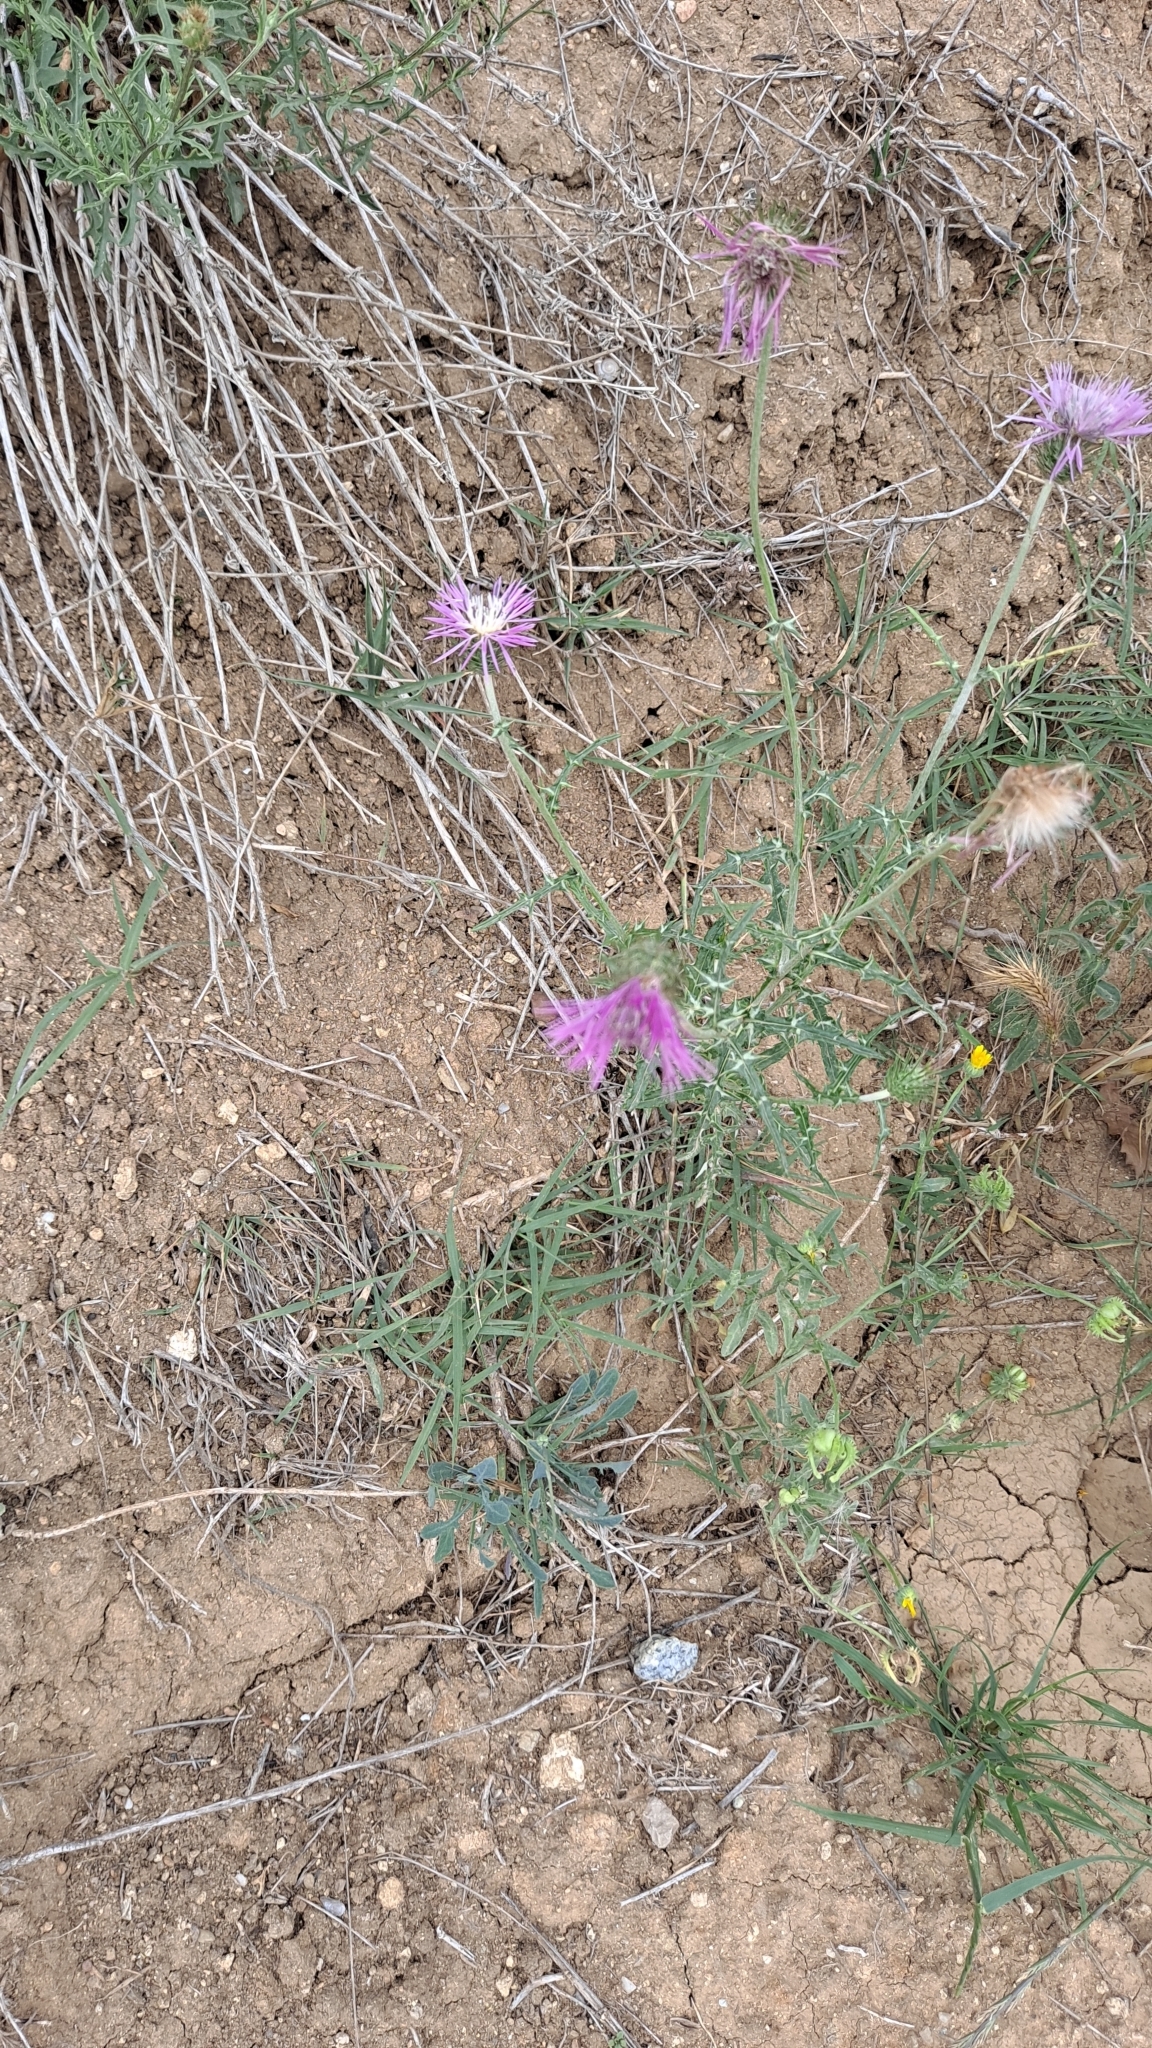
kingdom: Plantae
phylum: Tracheophyta
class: Magnoliopsida
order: Asterales
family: Asteraceae
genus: Galactites
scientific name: Galactites tomentosa
